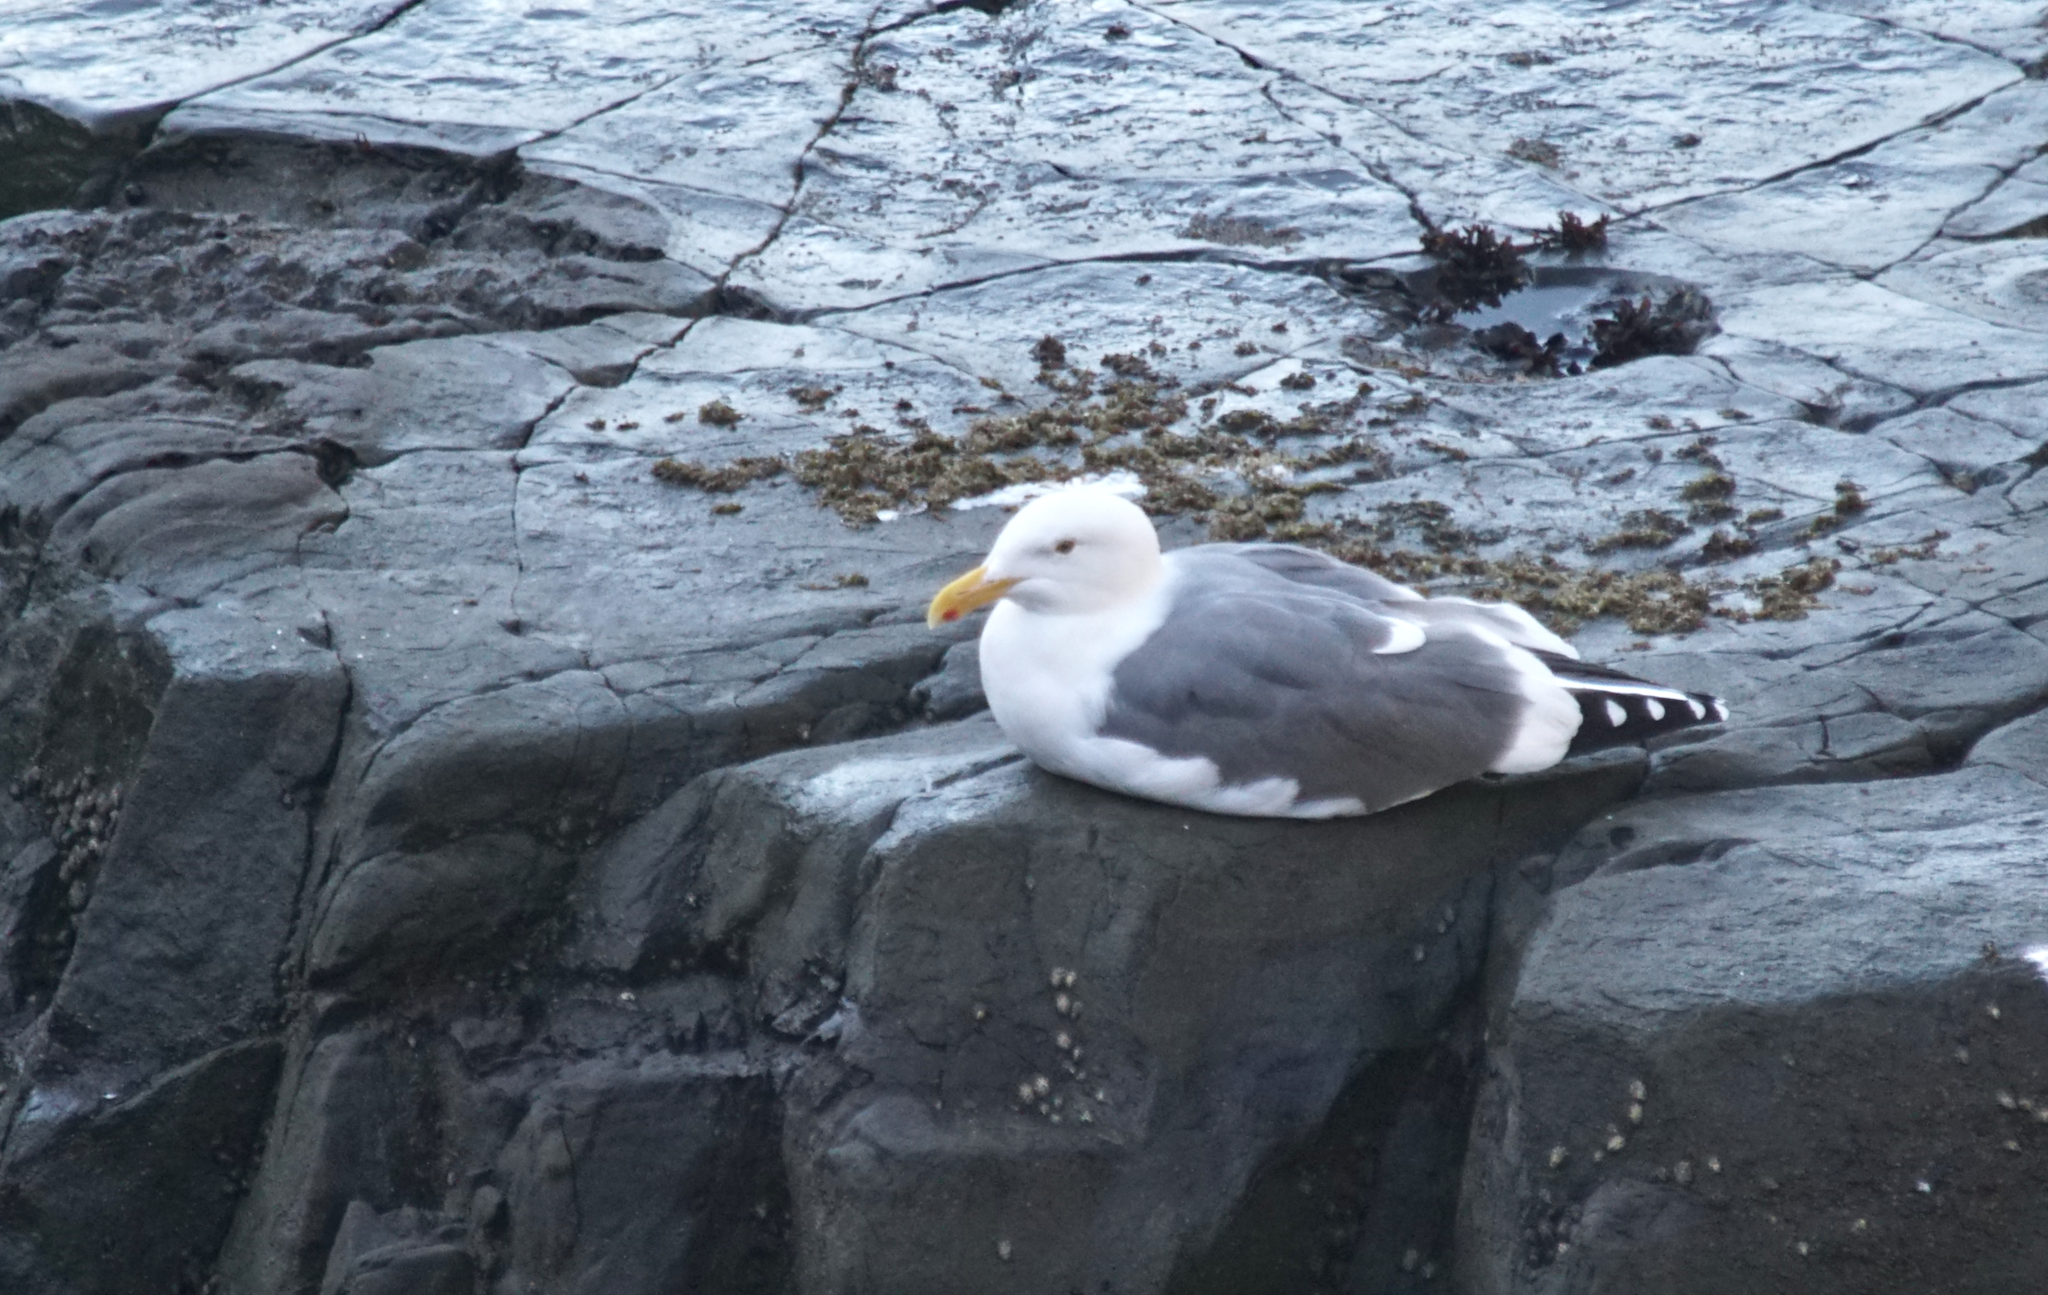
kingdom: Animalia
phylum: Chordata
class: Aves
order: Charadriiformes
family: Laridae
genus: Larus
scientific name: Larus occidentalis
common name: Western gull
